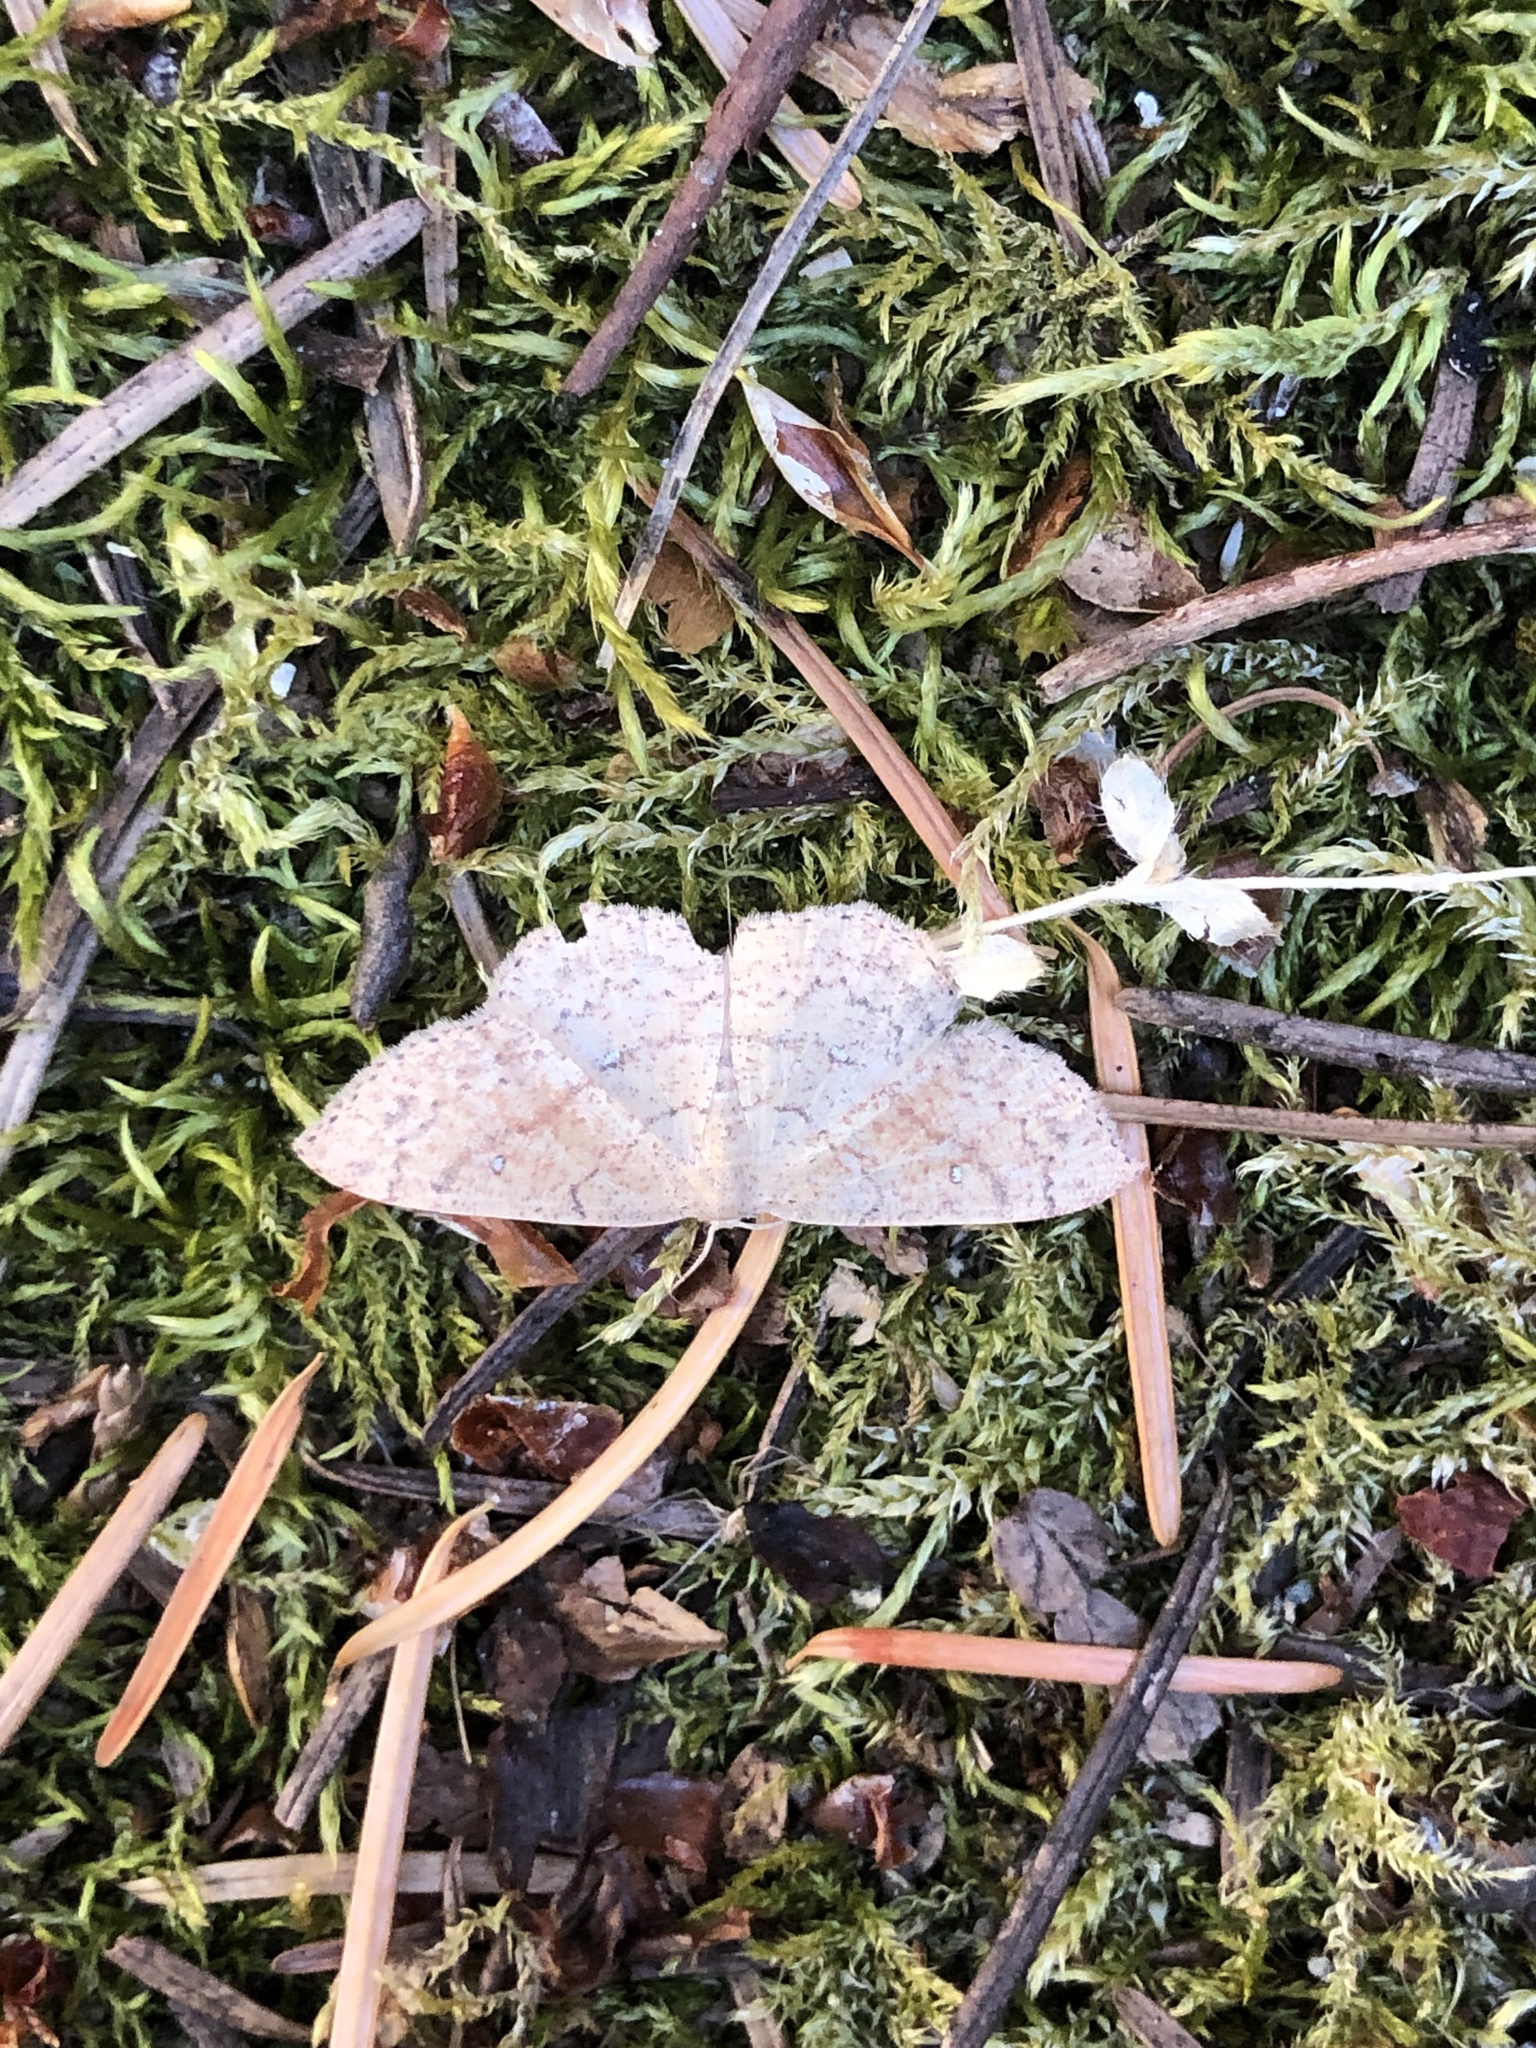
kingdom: Animalia
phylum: Arthropoda
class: Insecta
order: Lepidoptera
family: Geometridae
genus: Cyclophora
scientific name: Cyclophora dataria
